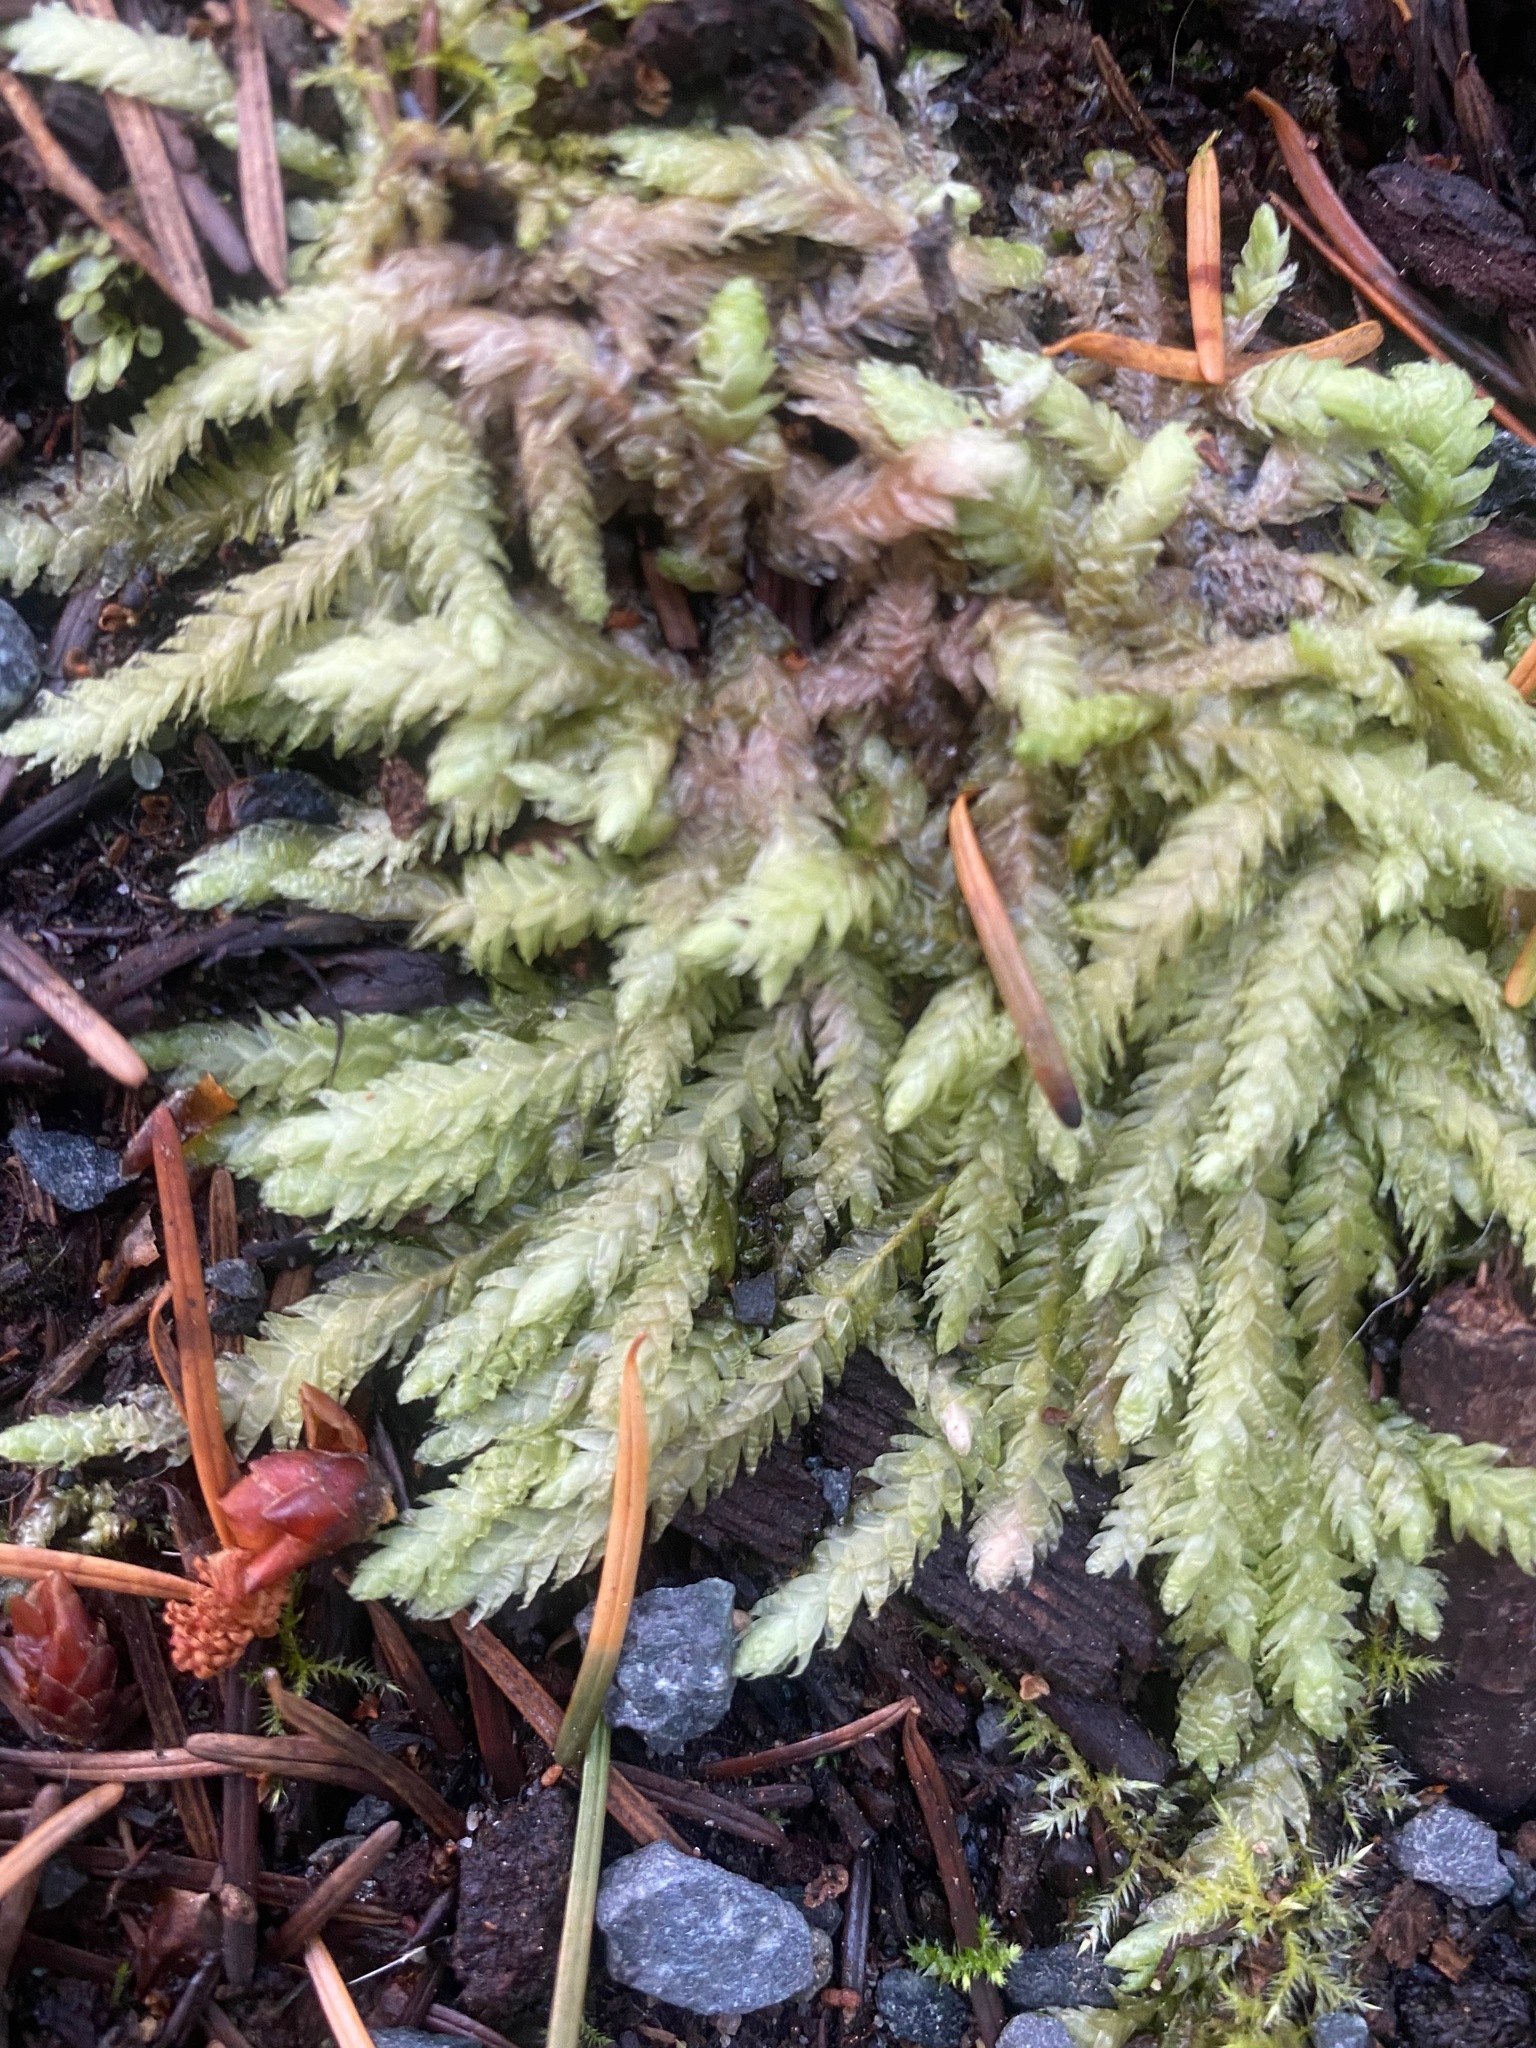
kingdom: Plantae
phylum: Bryophyta
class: Bryopsida
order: Hypnales
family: Plagiotheciaceae
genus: Plagiothecium
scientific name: Plagiothecium undulatum
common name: Waved silk-moss
